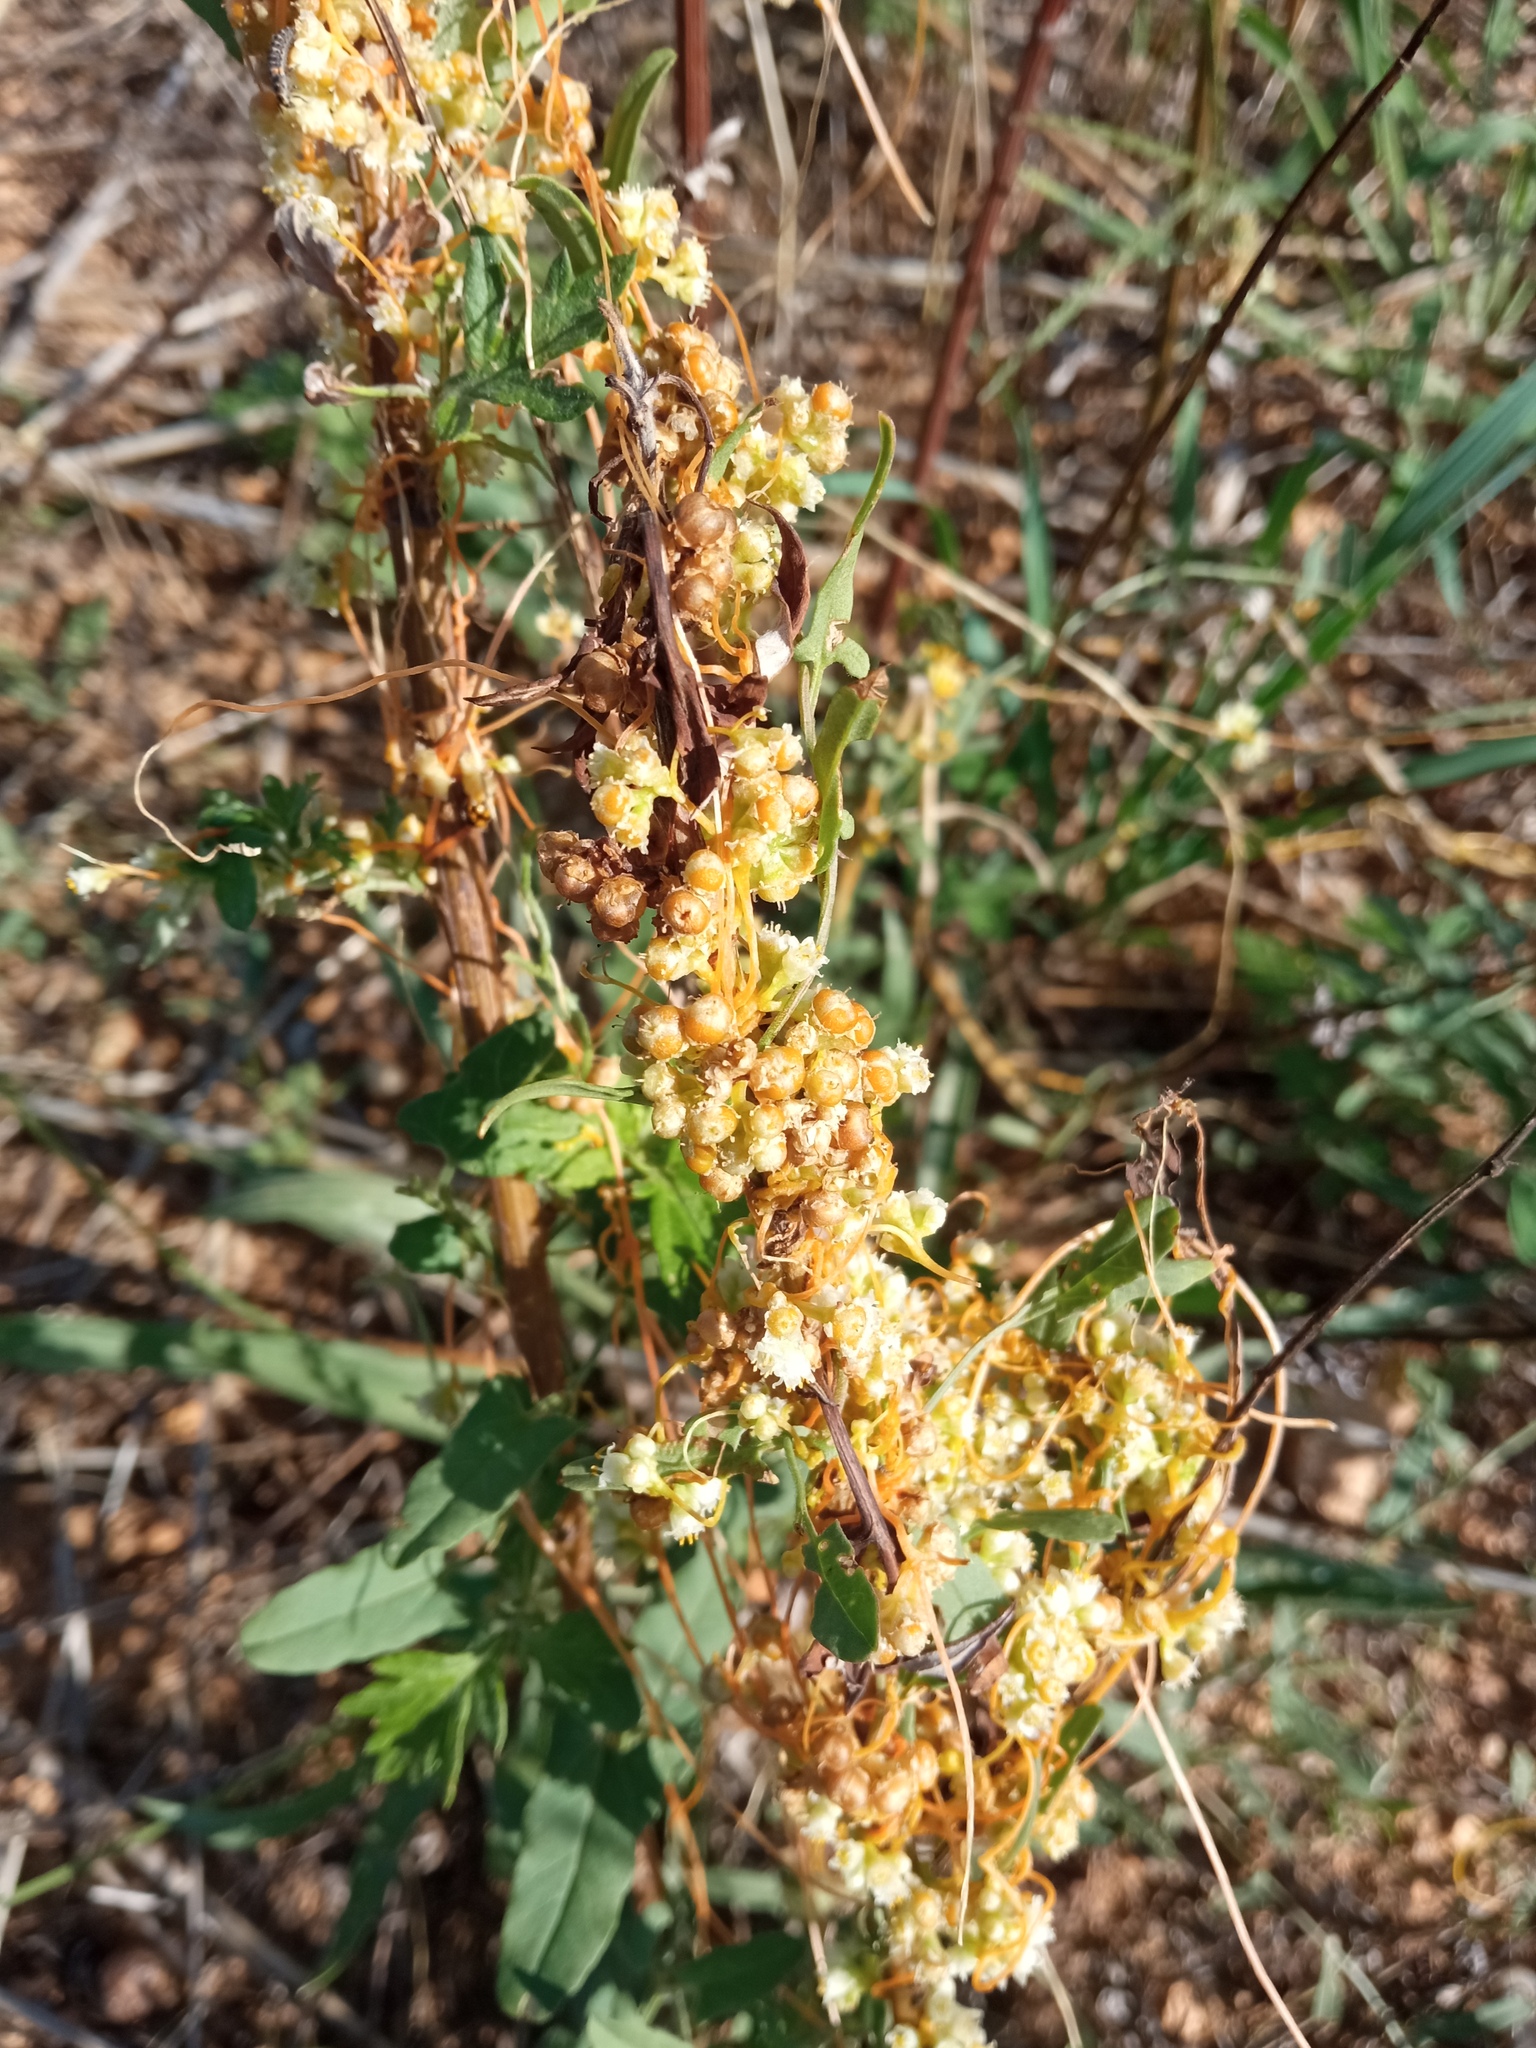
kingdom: Plantae
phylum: Tracheophyta
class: Magnoliopsida
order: Solanales
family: Convolvulaceae
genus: Cuscuta
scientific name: Cuscuta campestris
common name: Yellow dodder
